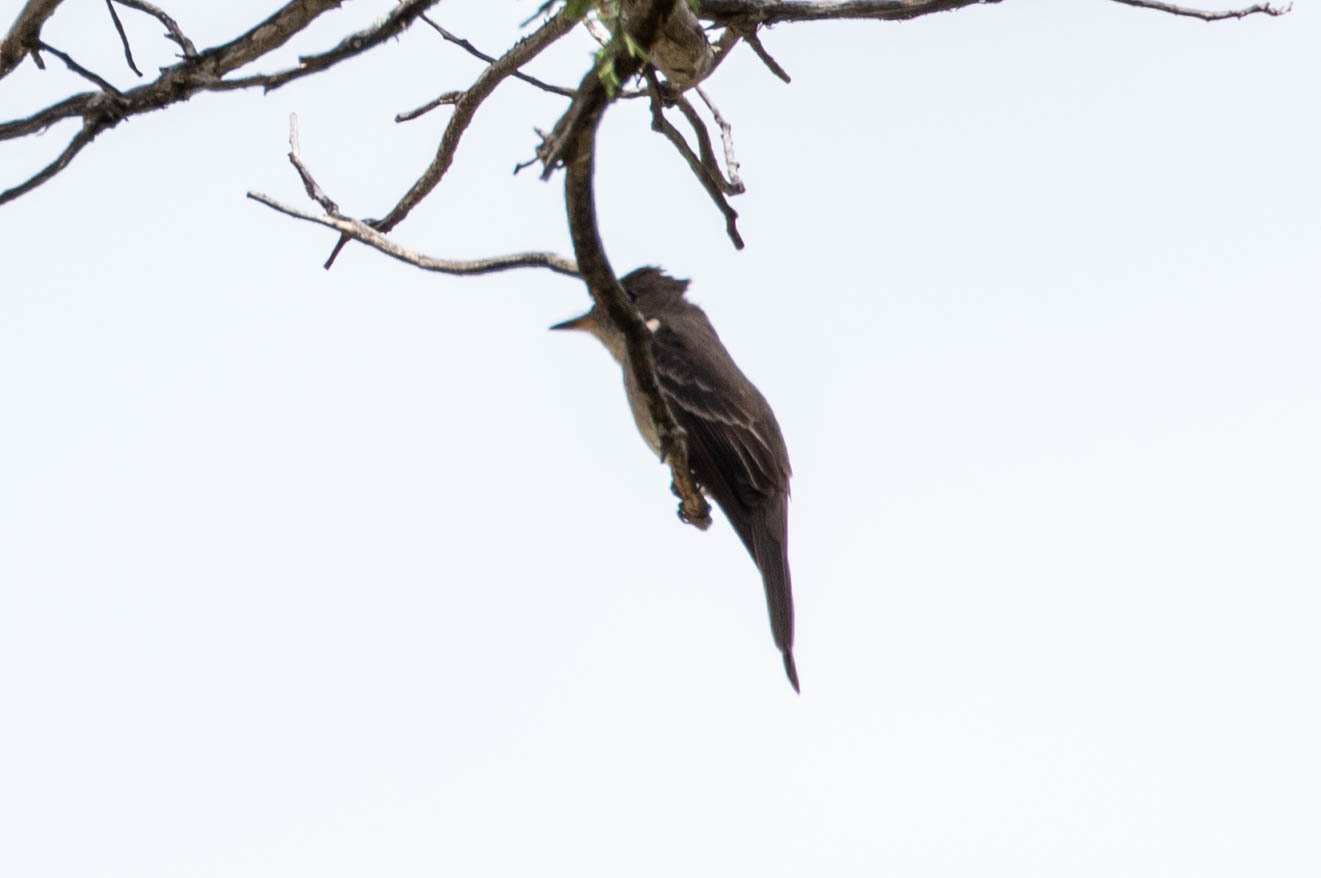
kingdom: Animalia
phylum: Chordata
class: Aves
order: Passeriformes
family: Tyrannidae
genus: Contopus
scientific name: Contopus sordidulus
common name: Western wood-pewee
